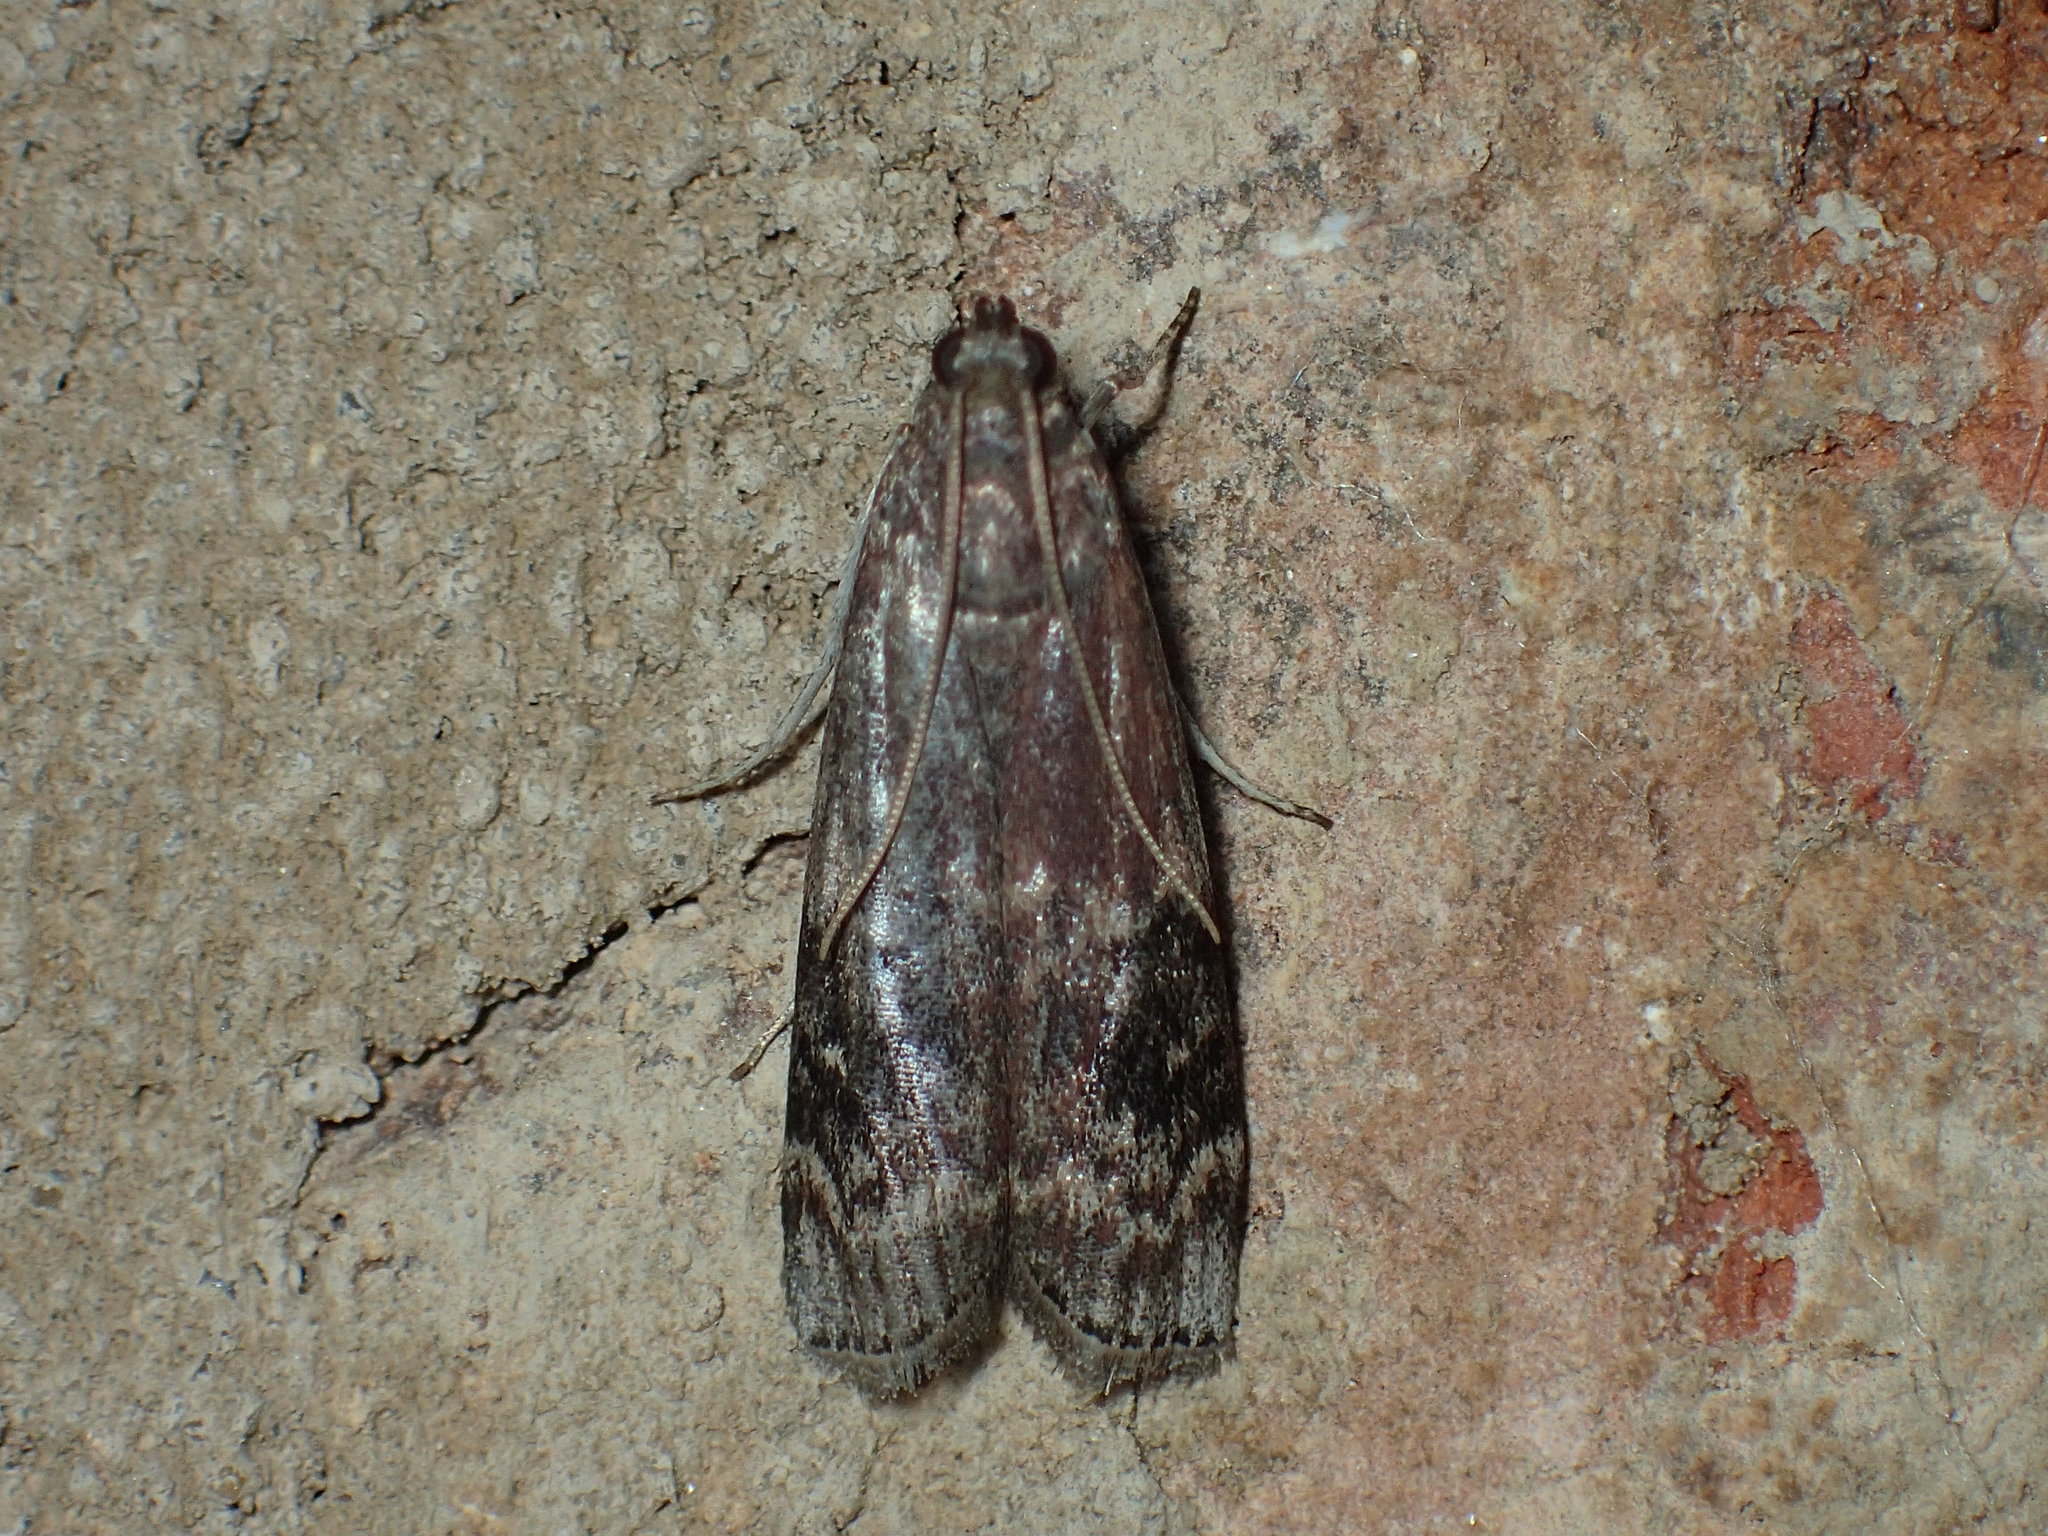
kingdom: Animalia
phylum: Arthropoda
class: Insecta
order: Lepidoptera
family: Pyralidae
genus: Euzophera
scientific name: Euzophera ostricolorella
